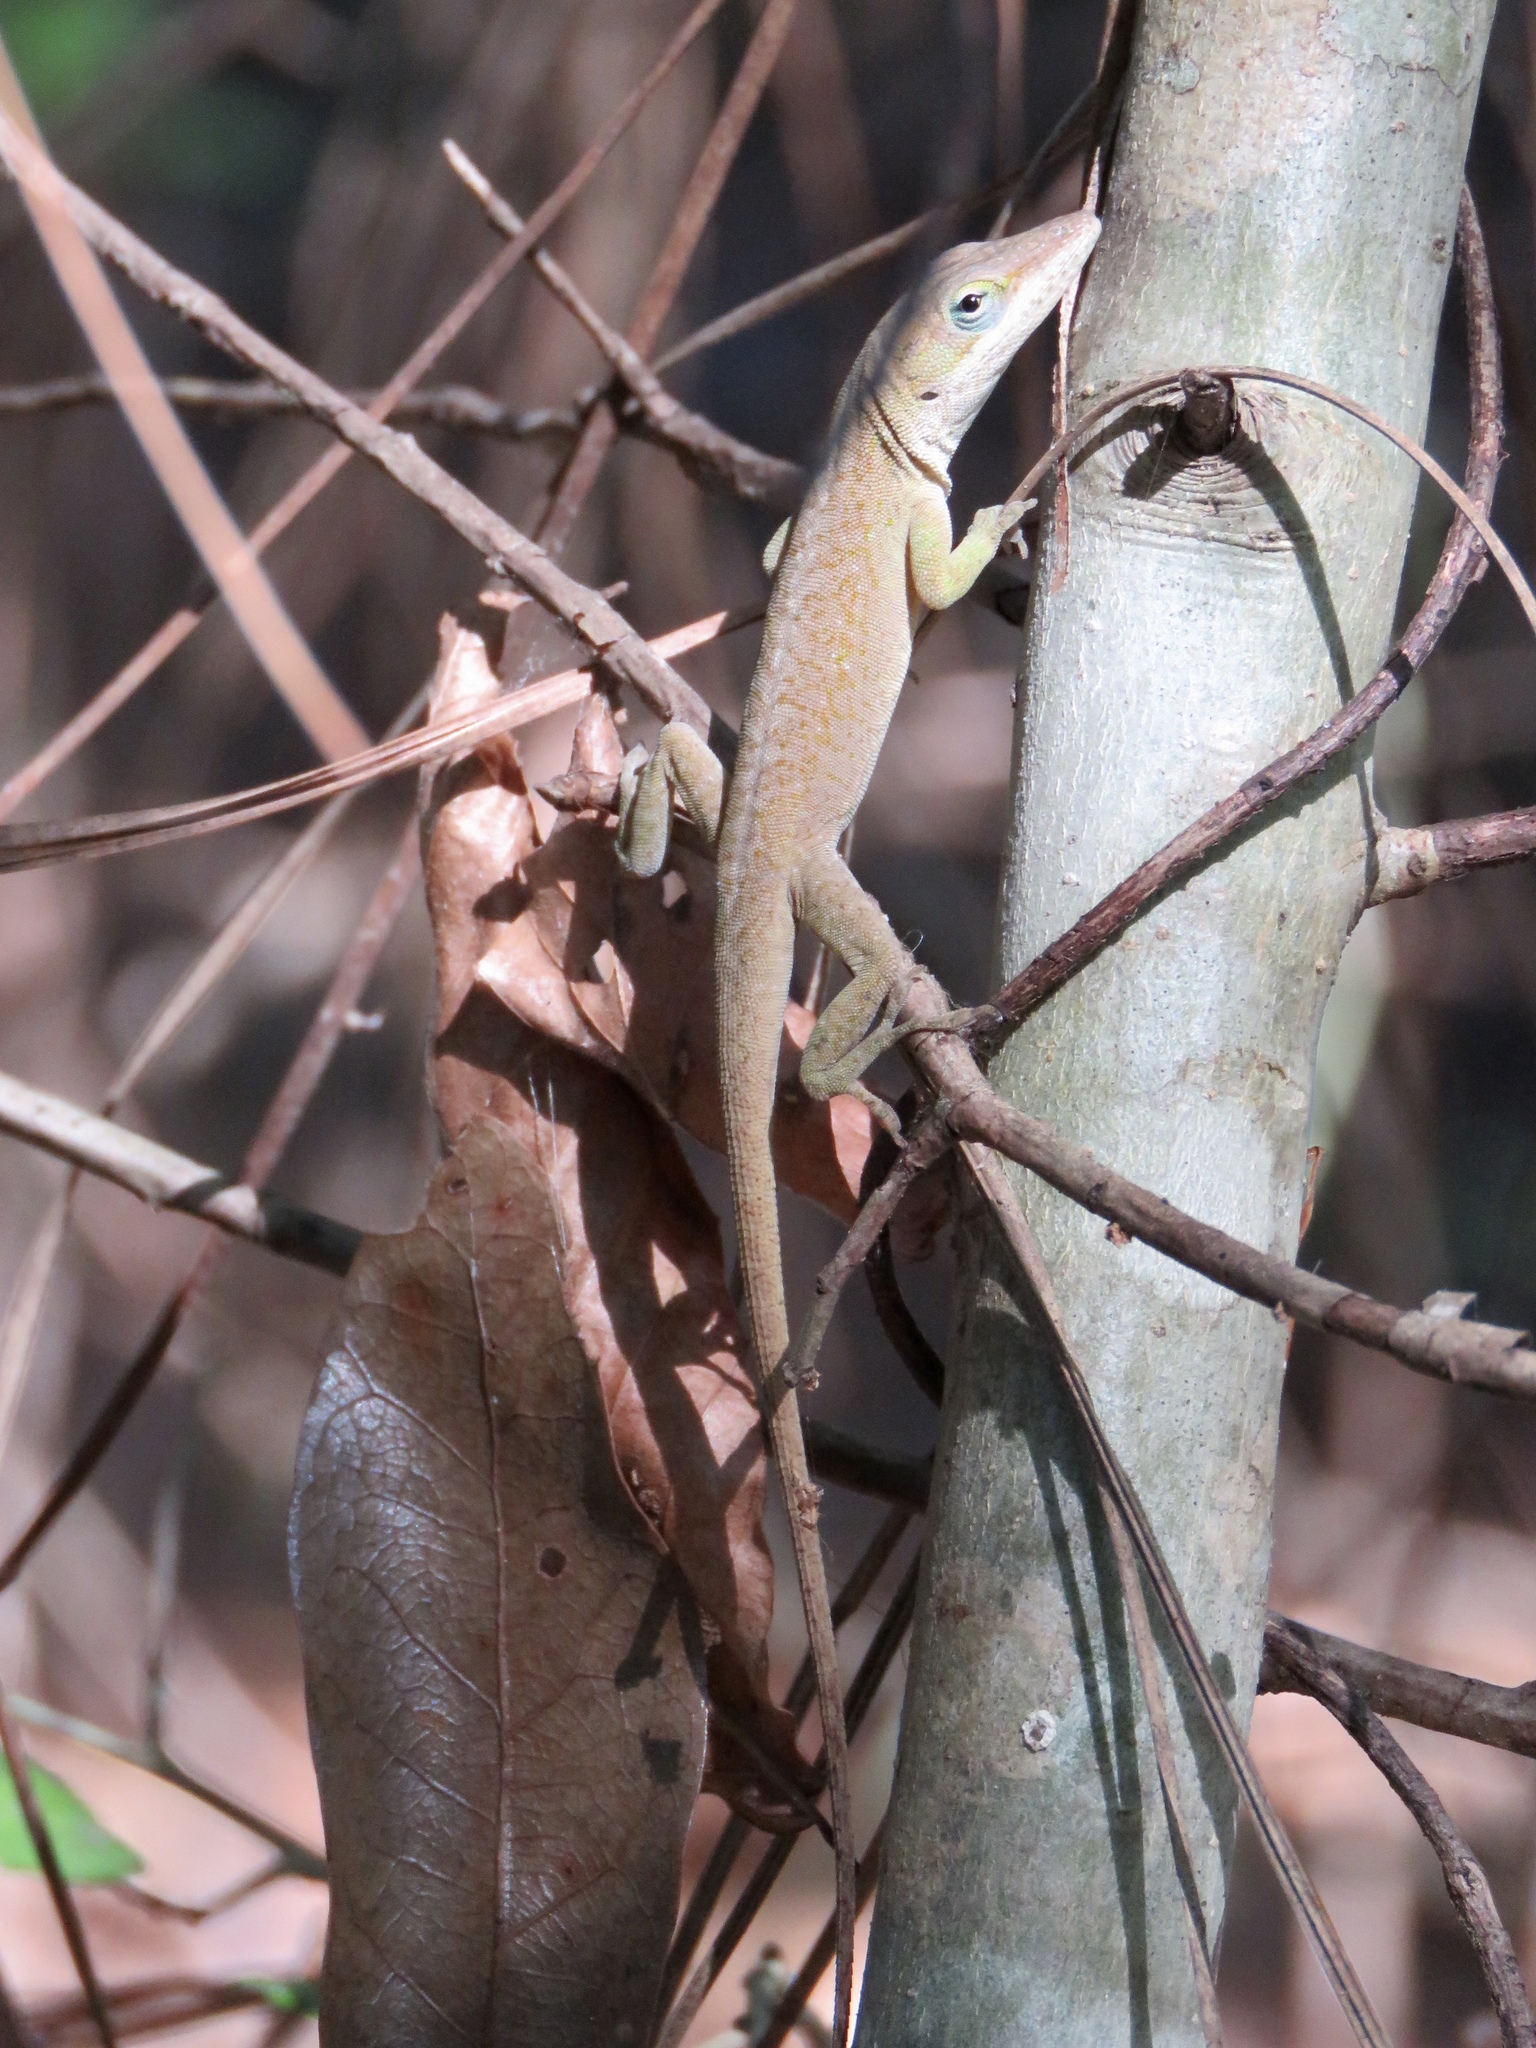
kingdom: Animalia
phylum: Chordata
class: Squamata
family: Dactyloidae
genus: Anolis
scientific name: Anolis carolinensis
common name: Green anole
